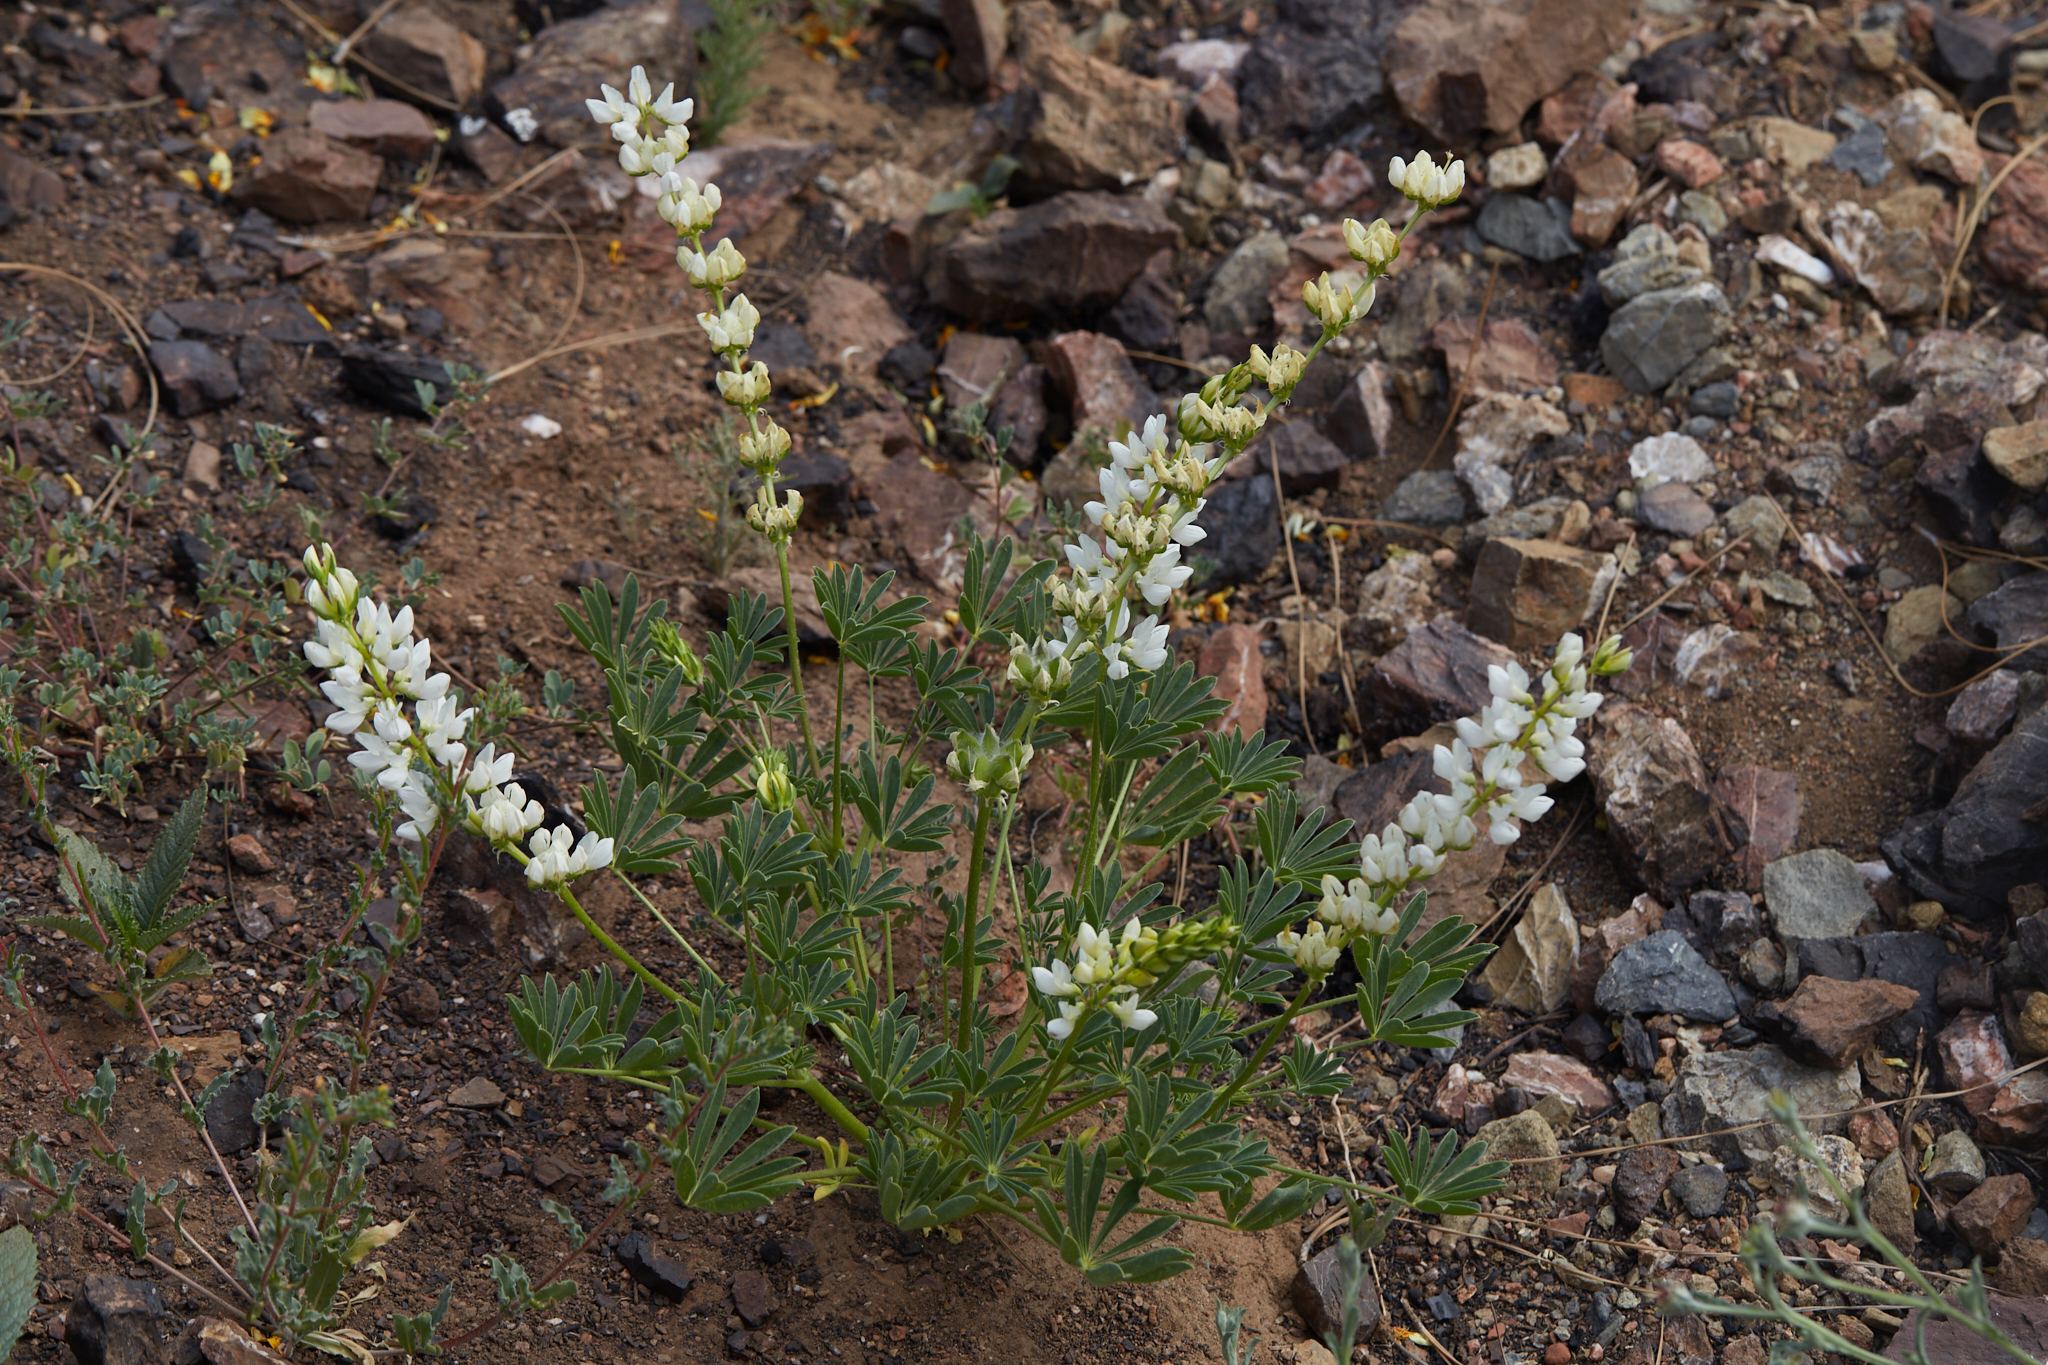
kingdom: Plantae
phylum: Tracheophyta
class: Magnoliopsida
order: Fabales
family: Fabaceae
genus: Lupinus
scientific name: Lupinus microcarpus
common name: Chick lupine
